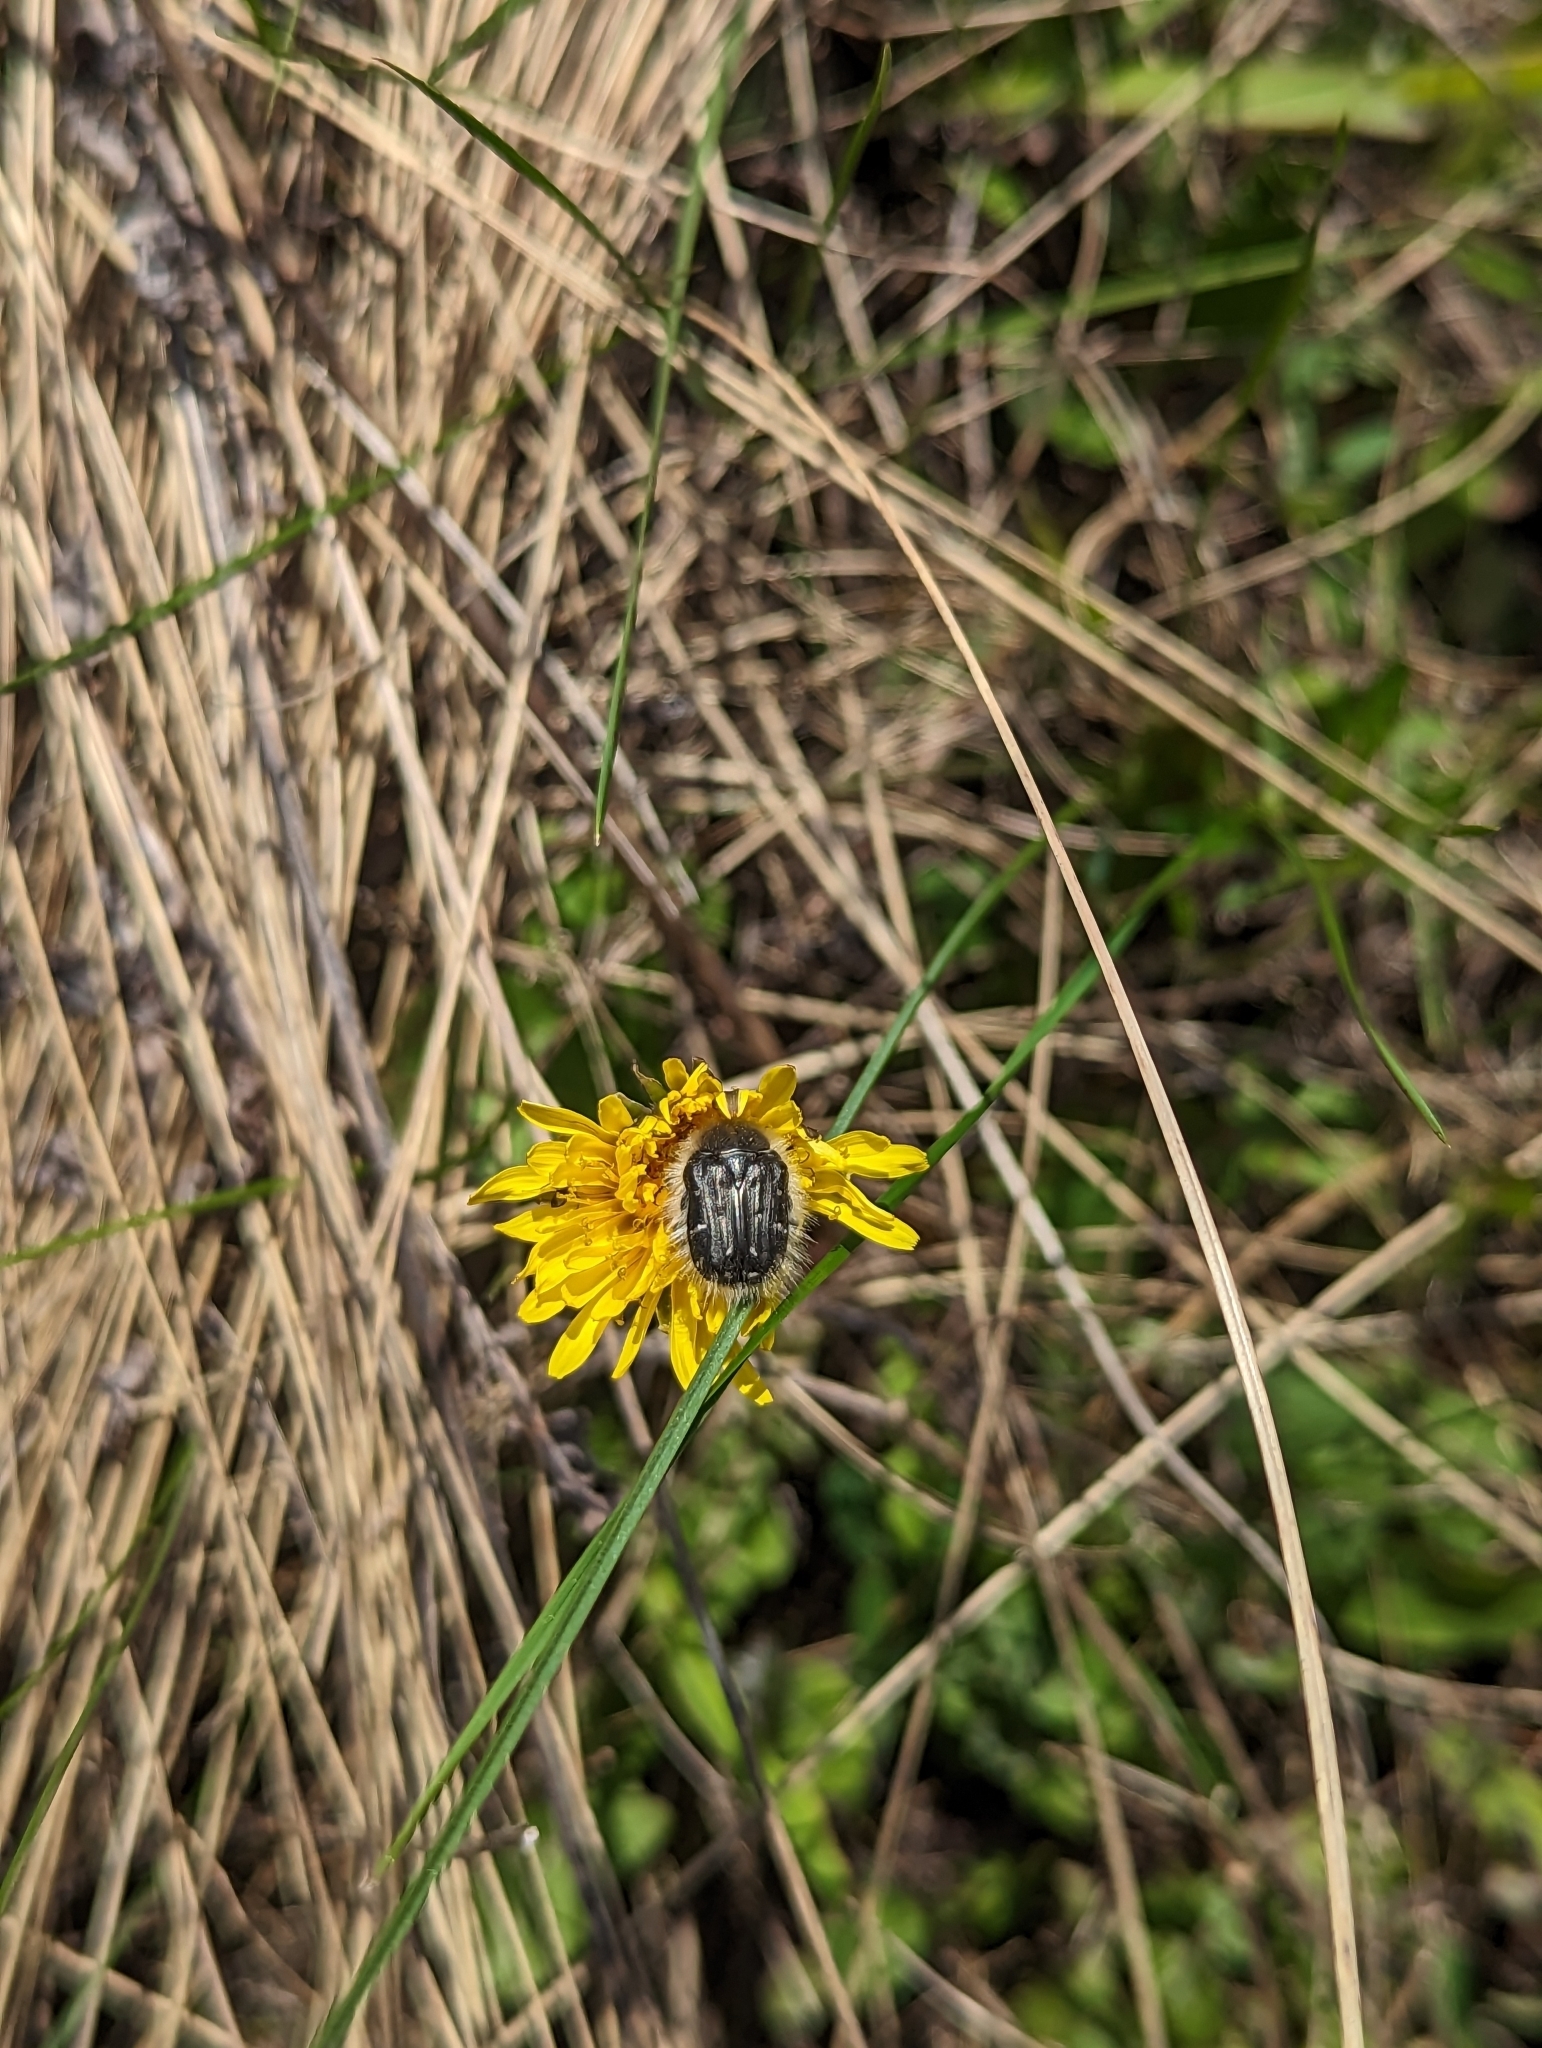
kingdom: Animalia
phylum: Arthropoda
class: Insecta
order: Coleoptera
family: Scarabaeidae
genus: Tropinota
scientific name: Tropinota hirta
